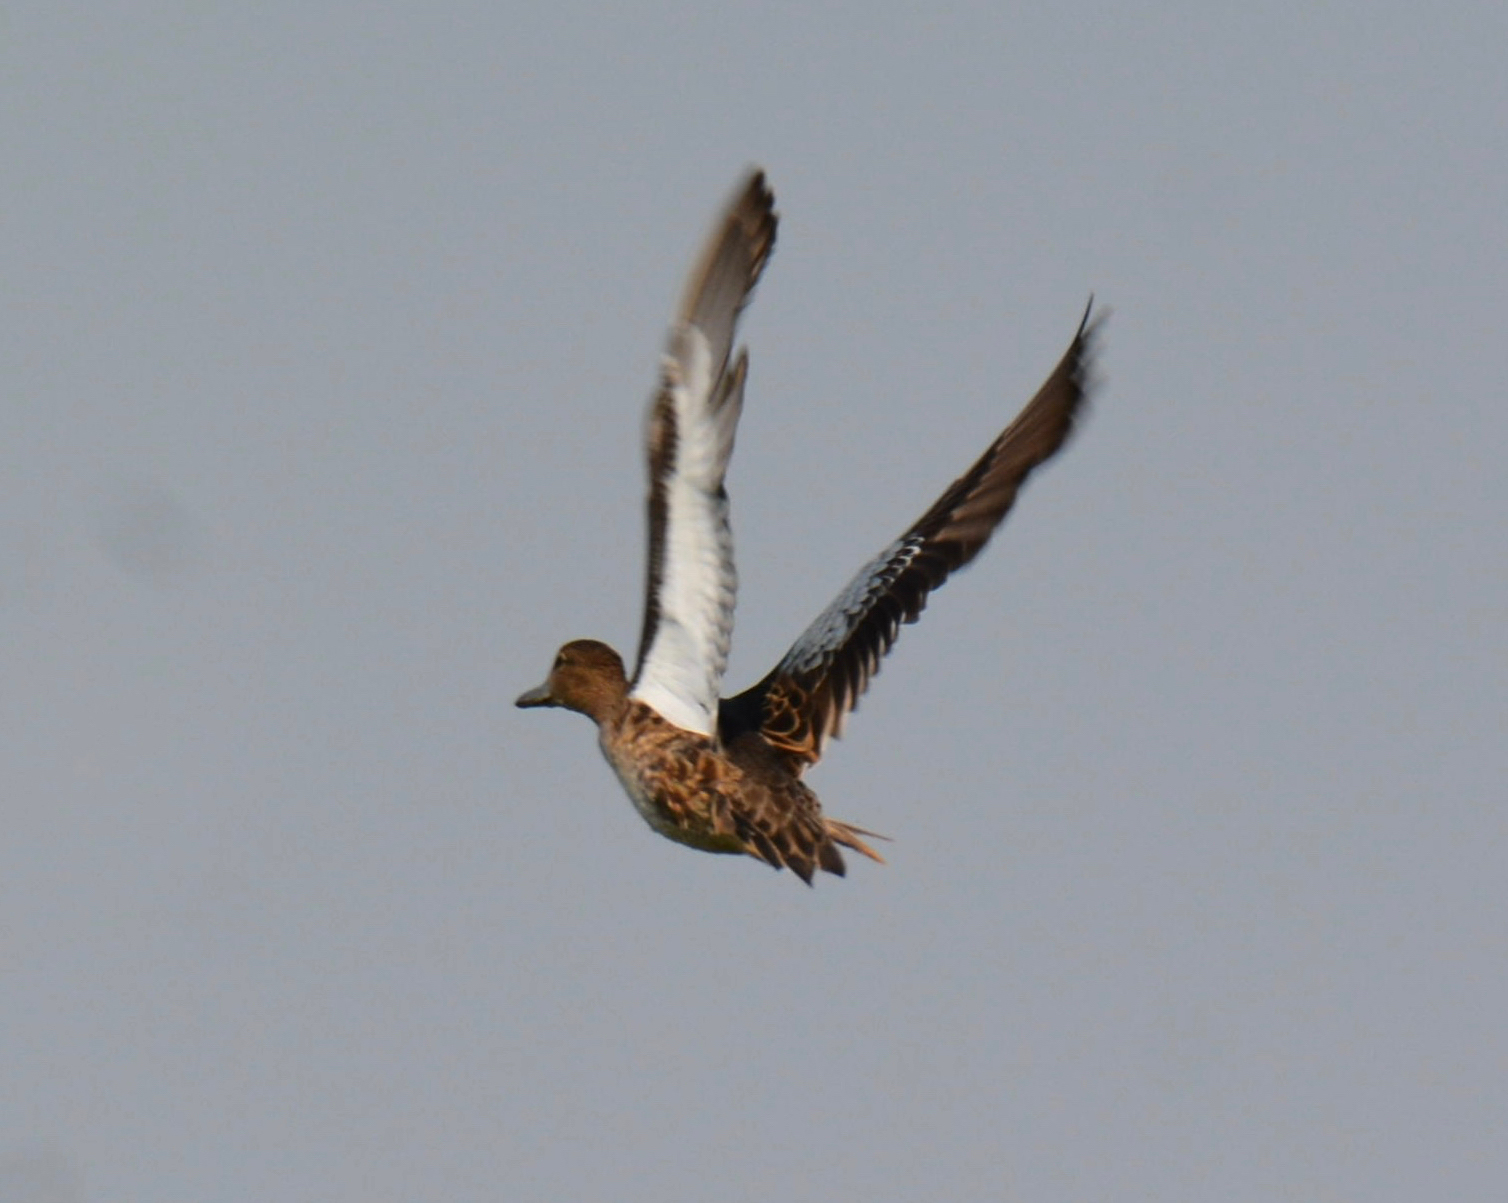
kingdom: Animalia
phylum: Chordata
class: Aves
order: Anseriformes
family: Anatidae
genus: Spatula
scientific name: Spatula cyanoptera
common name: Cinnamon teal
